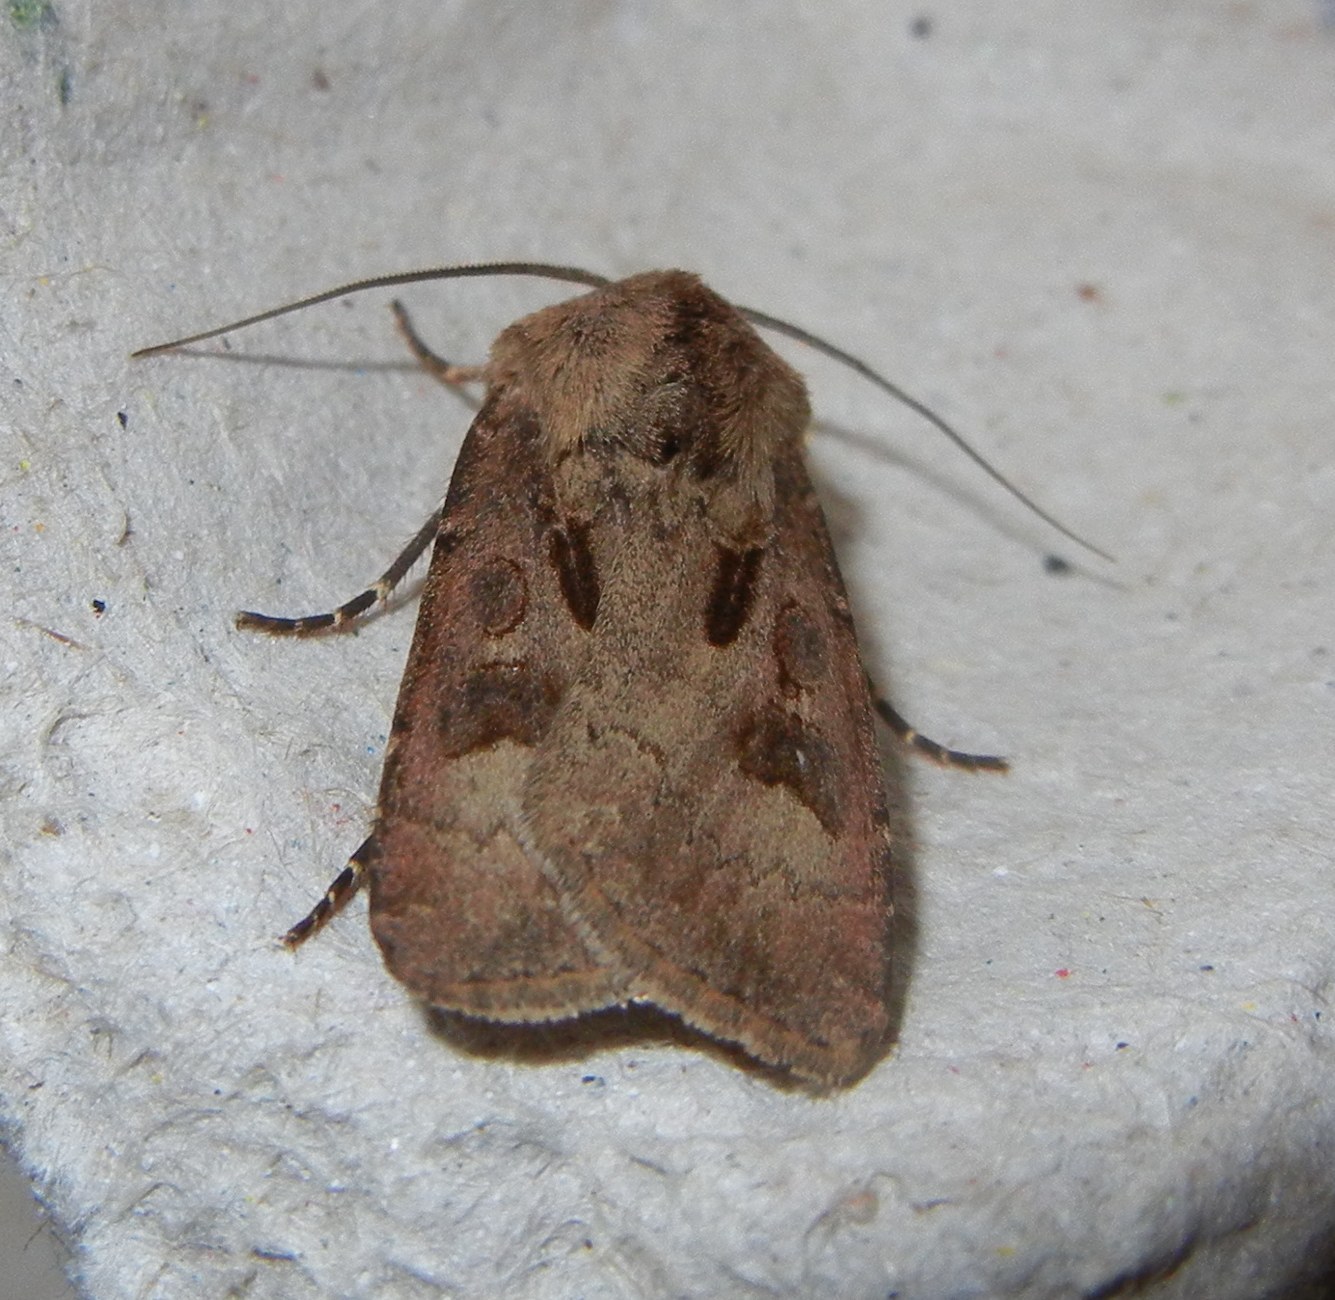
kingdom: Animalia
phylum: Arthropoda
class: Insecta
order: Lepidoptera
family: Noctuidae
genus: Agrotis
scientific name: Agrotis exclamationis
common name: Heart and dart
